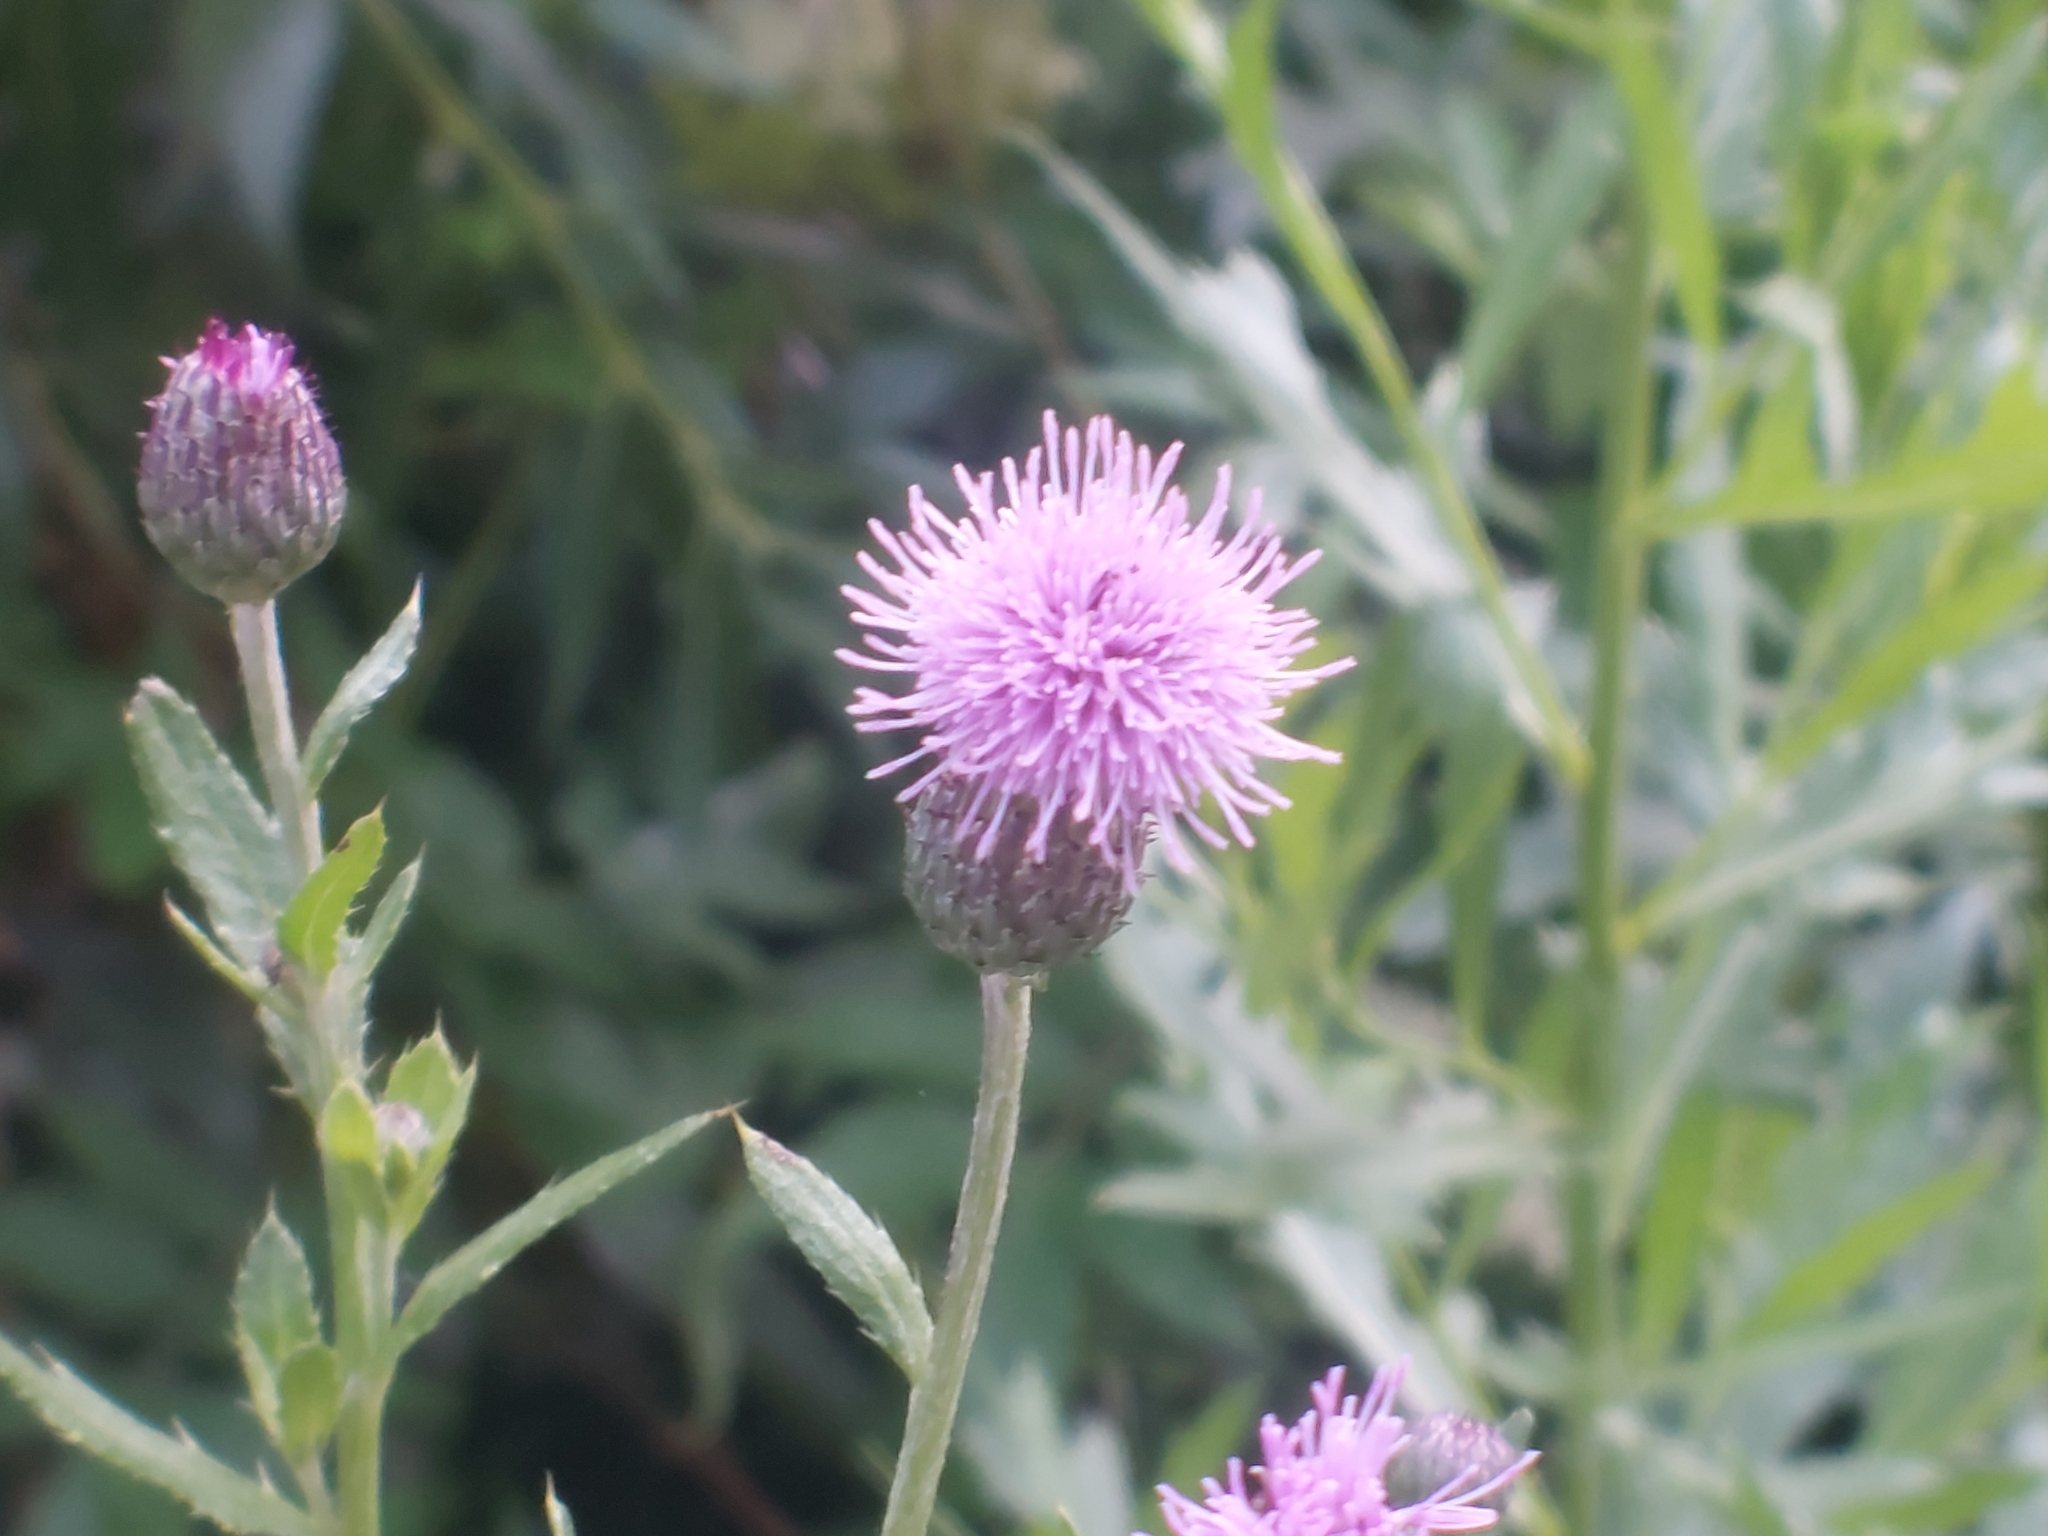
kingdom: Plantae
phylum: Tracheophyta
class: Magnoliopsida
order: Asterales
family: Asteraceae
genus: Cirsium
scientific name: Cirsium arvense
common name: Creeping thistle
